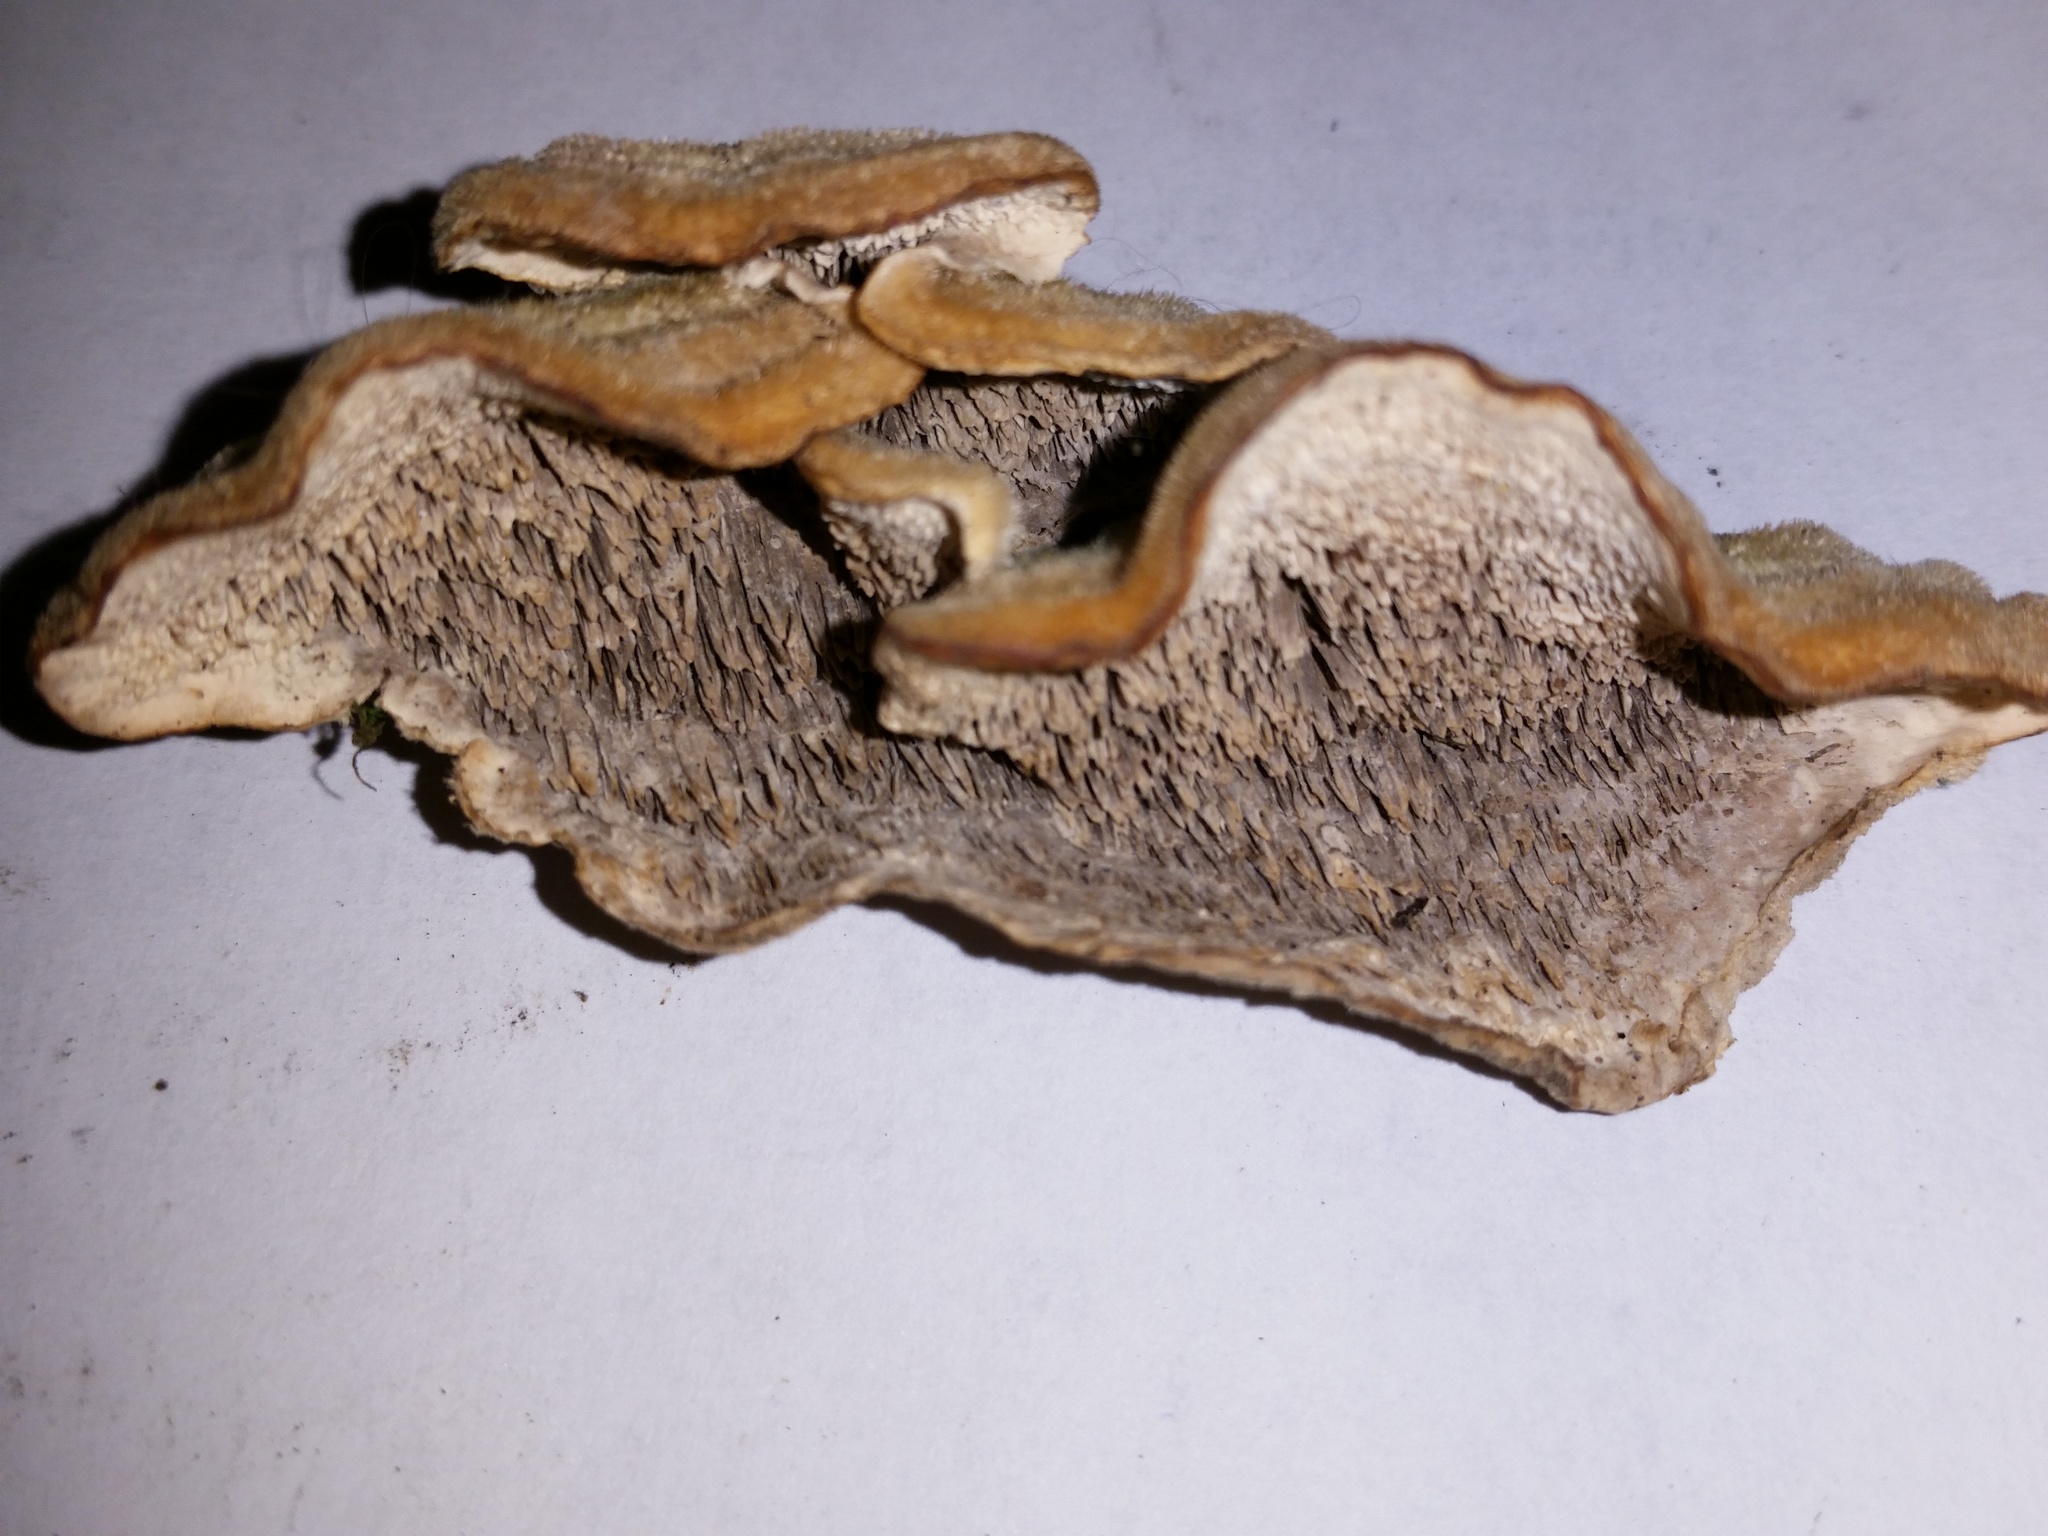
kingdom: Fungi
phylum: Basidiomycota
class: Agaricomycetes
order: Polyporales
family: Cerrenaceae
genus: Cerrena
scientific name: Cerrena unicolor
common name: Mossy maze polypore
